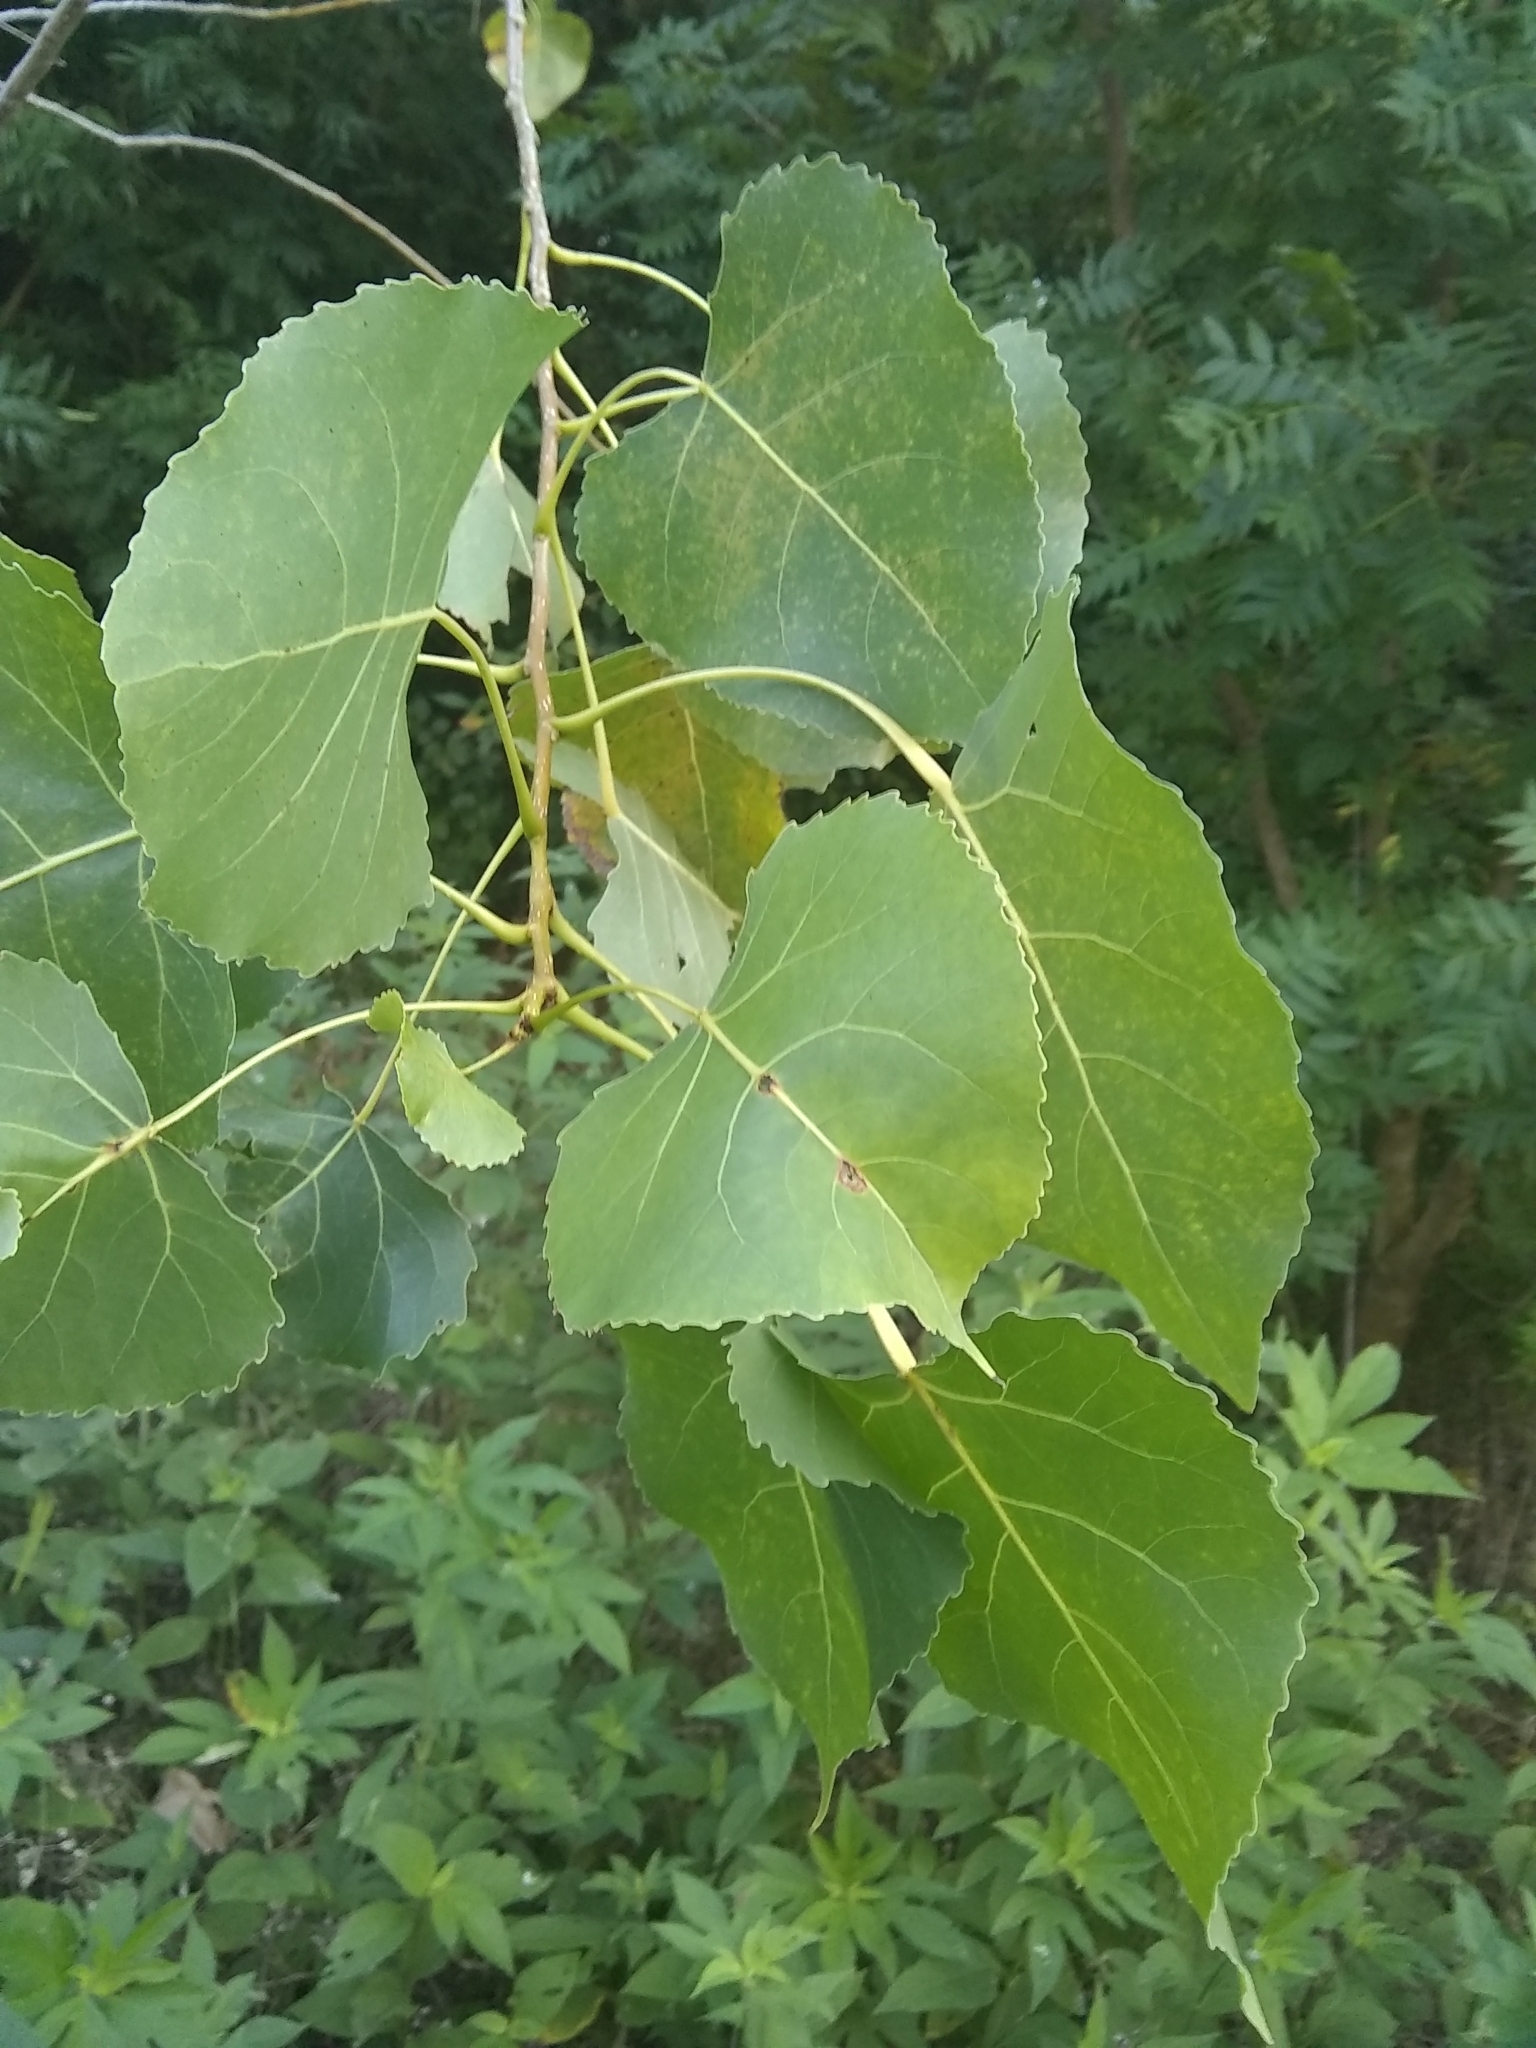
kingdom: Plantae
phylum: Tracheophyta
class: Magnoliopsida
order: Malpighiales
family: Salicaceae
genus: Populus
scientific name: Populus deltoides
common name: Eastern cottonwood
